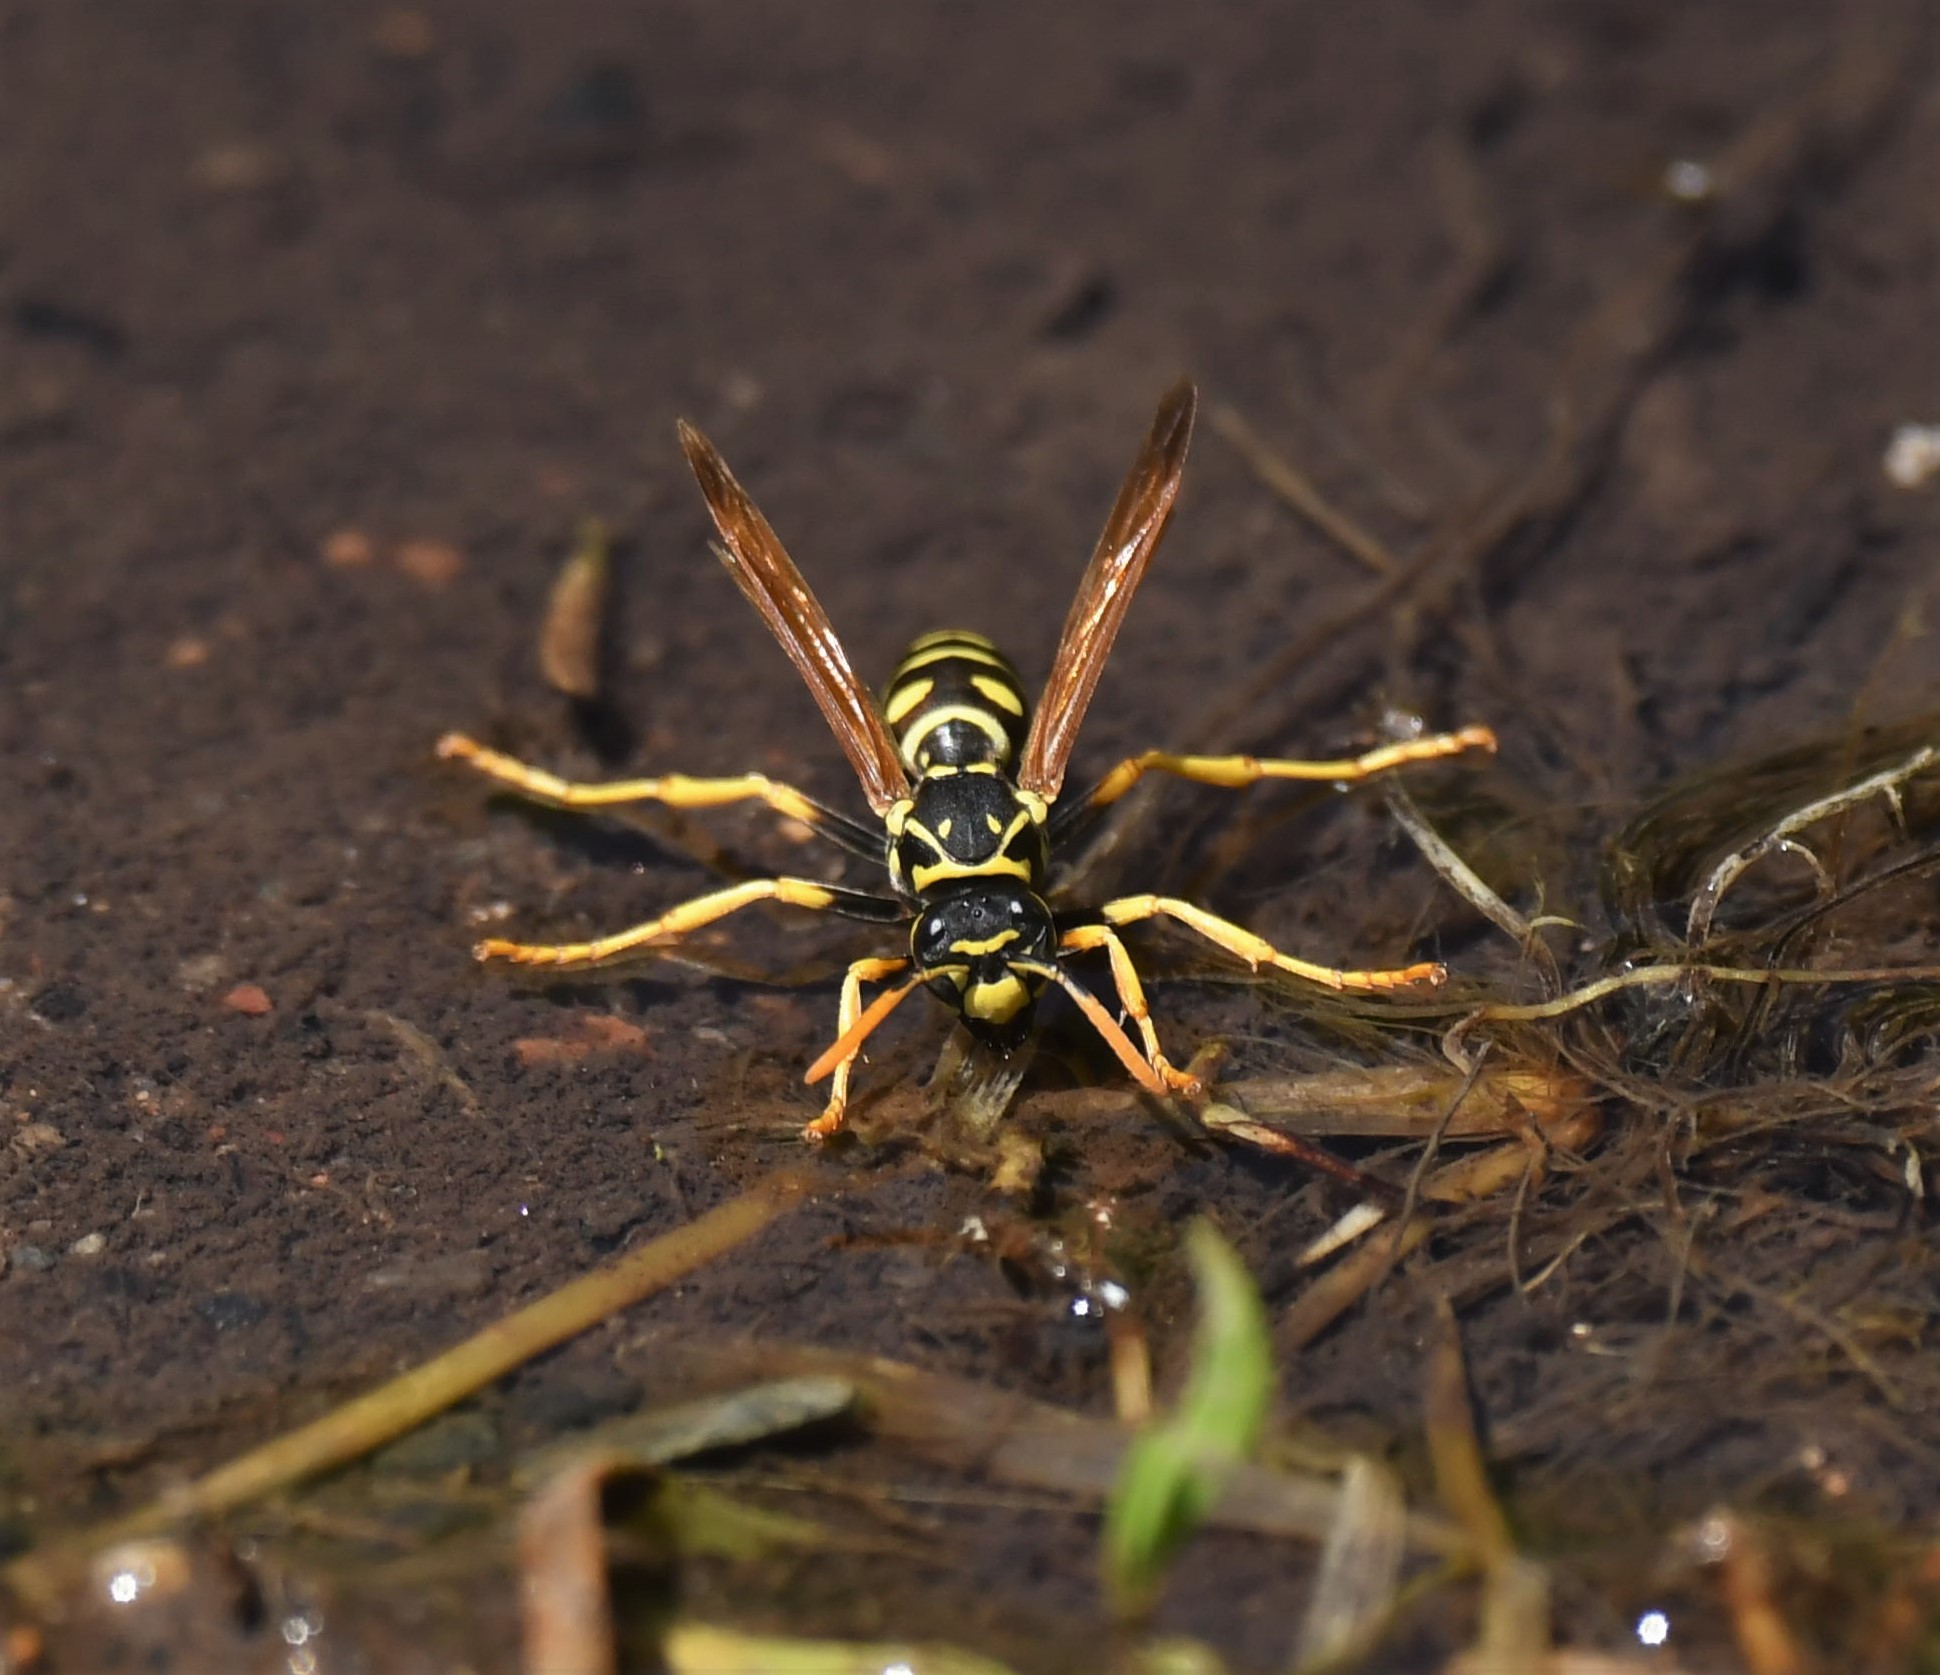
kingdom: Animalia
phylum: Arthropoda
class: Insecta
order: Hymenoptera
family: Eumenidae
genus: Polistes
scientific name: Polistes dominula
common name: Paper wasp
